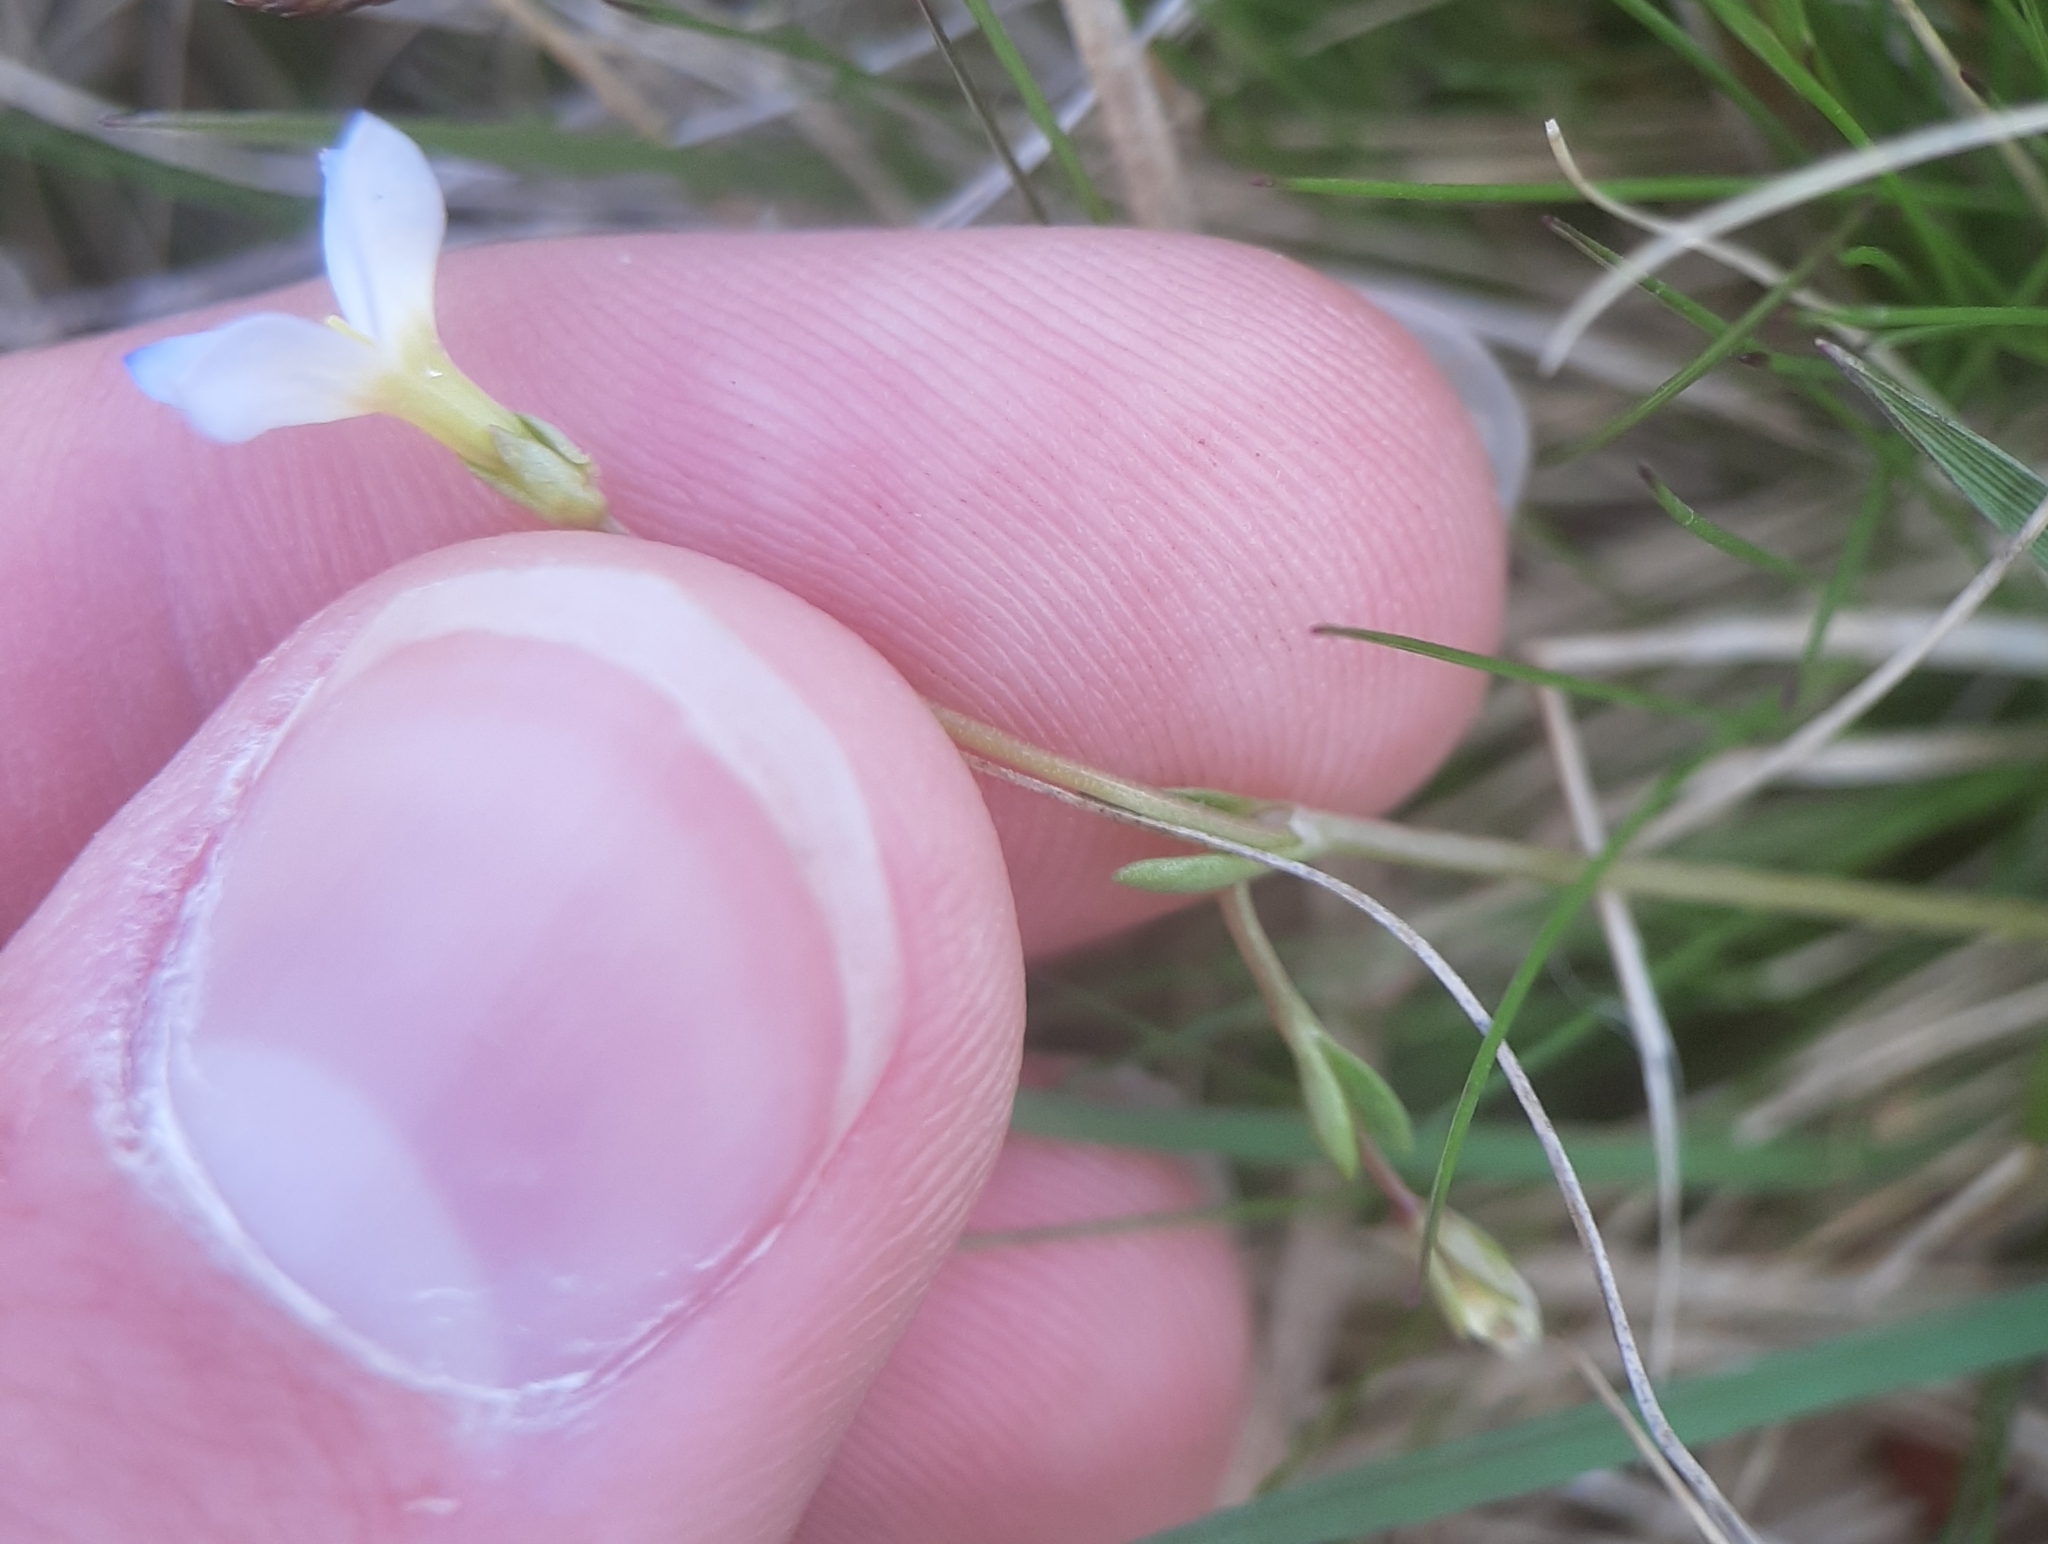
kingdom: Plantae
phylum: Tracheophyta
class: Magnoliopsida
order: Gentianales
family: Rubiaceae
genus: Houstonia
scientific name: Houstonia caerulea
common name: Bluets
